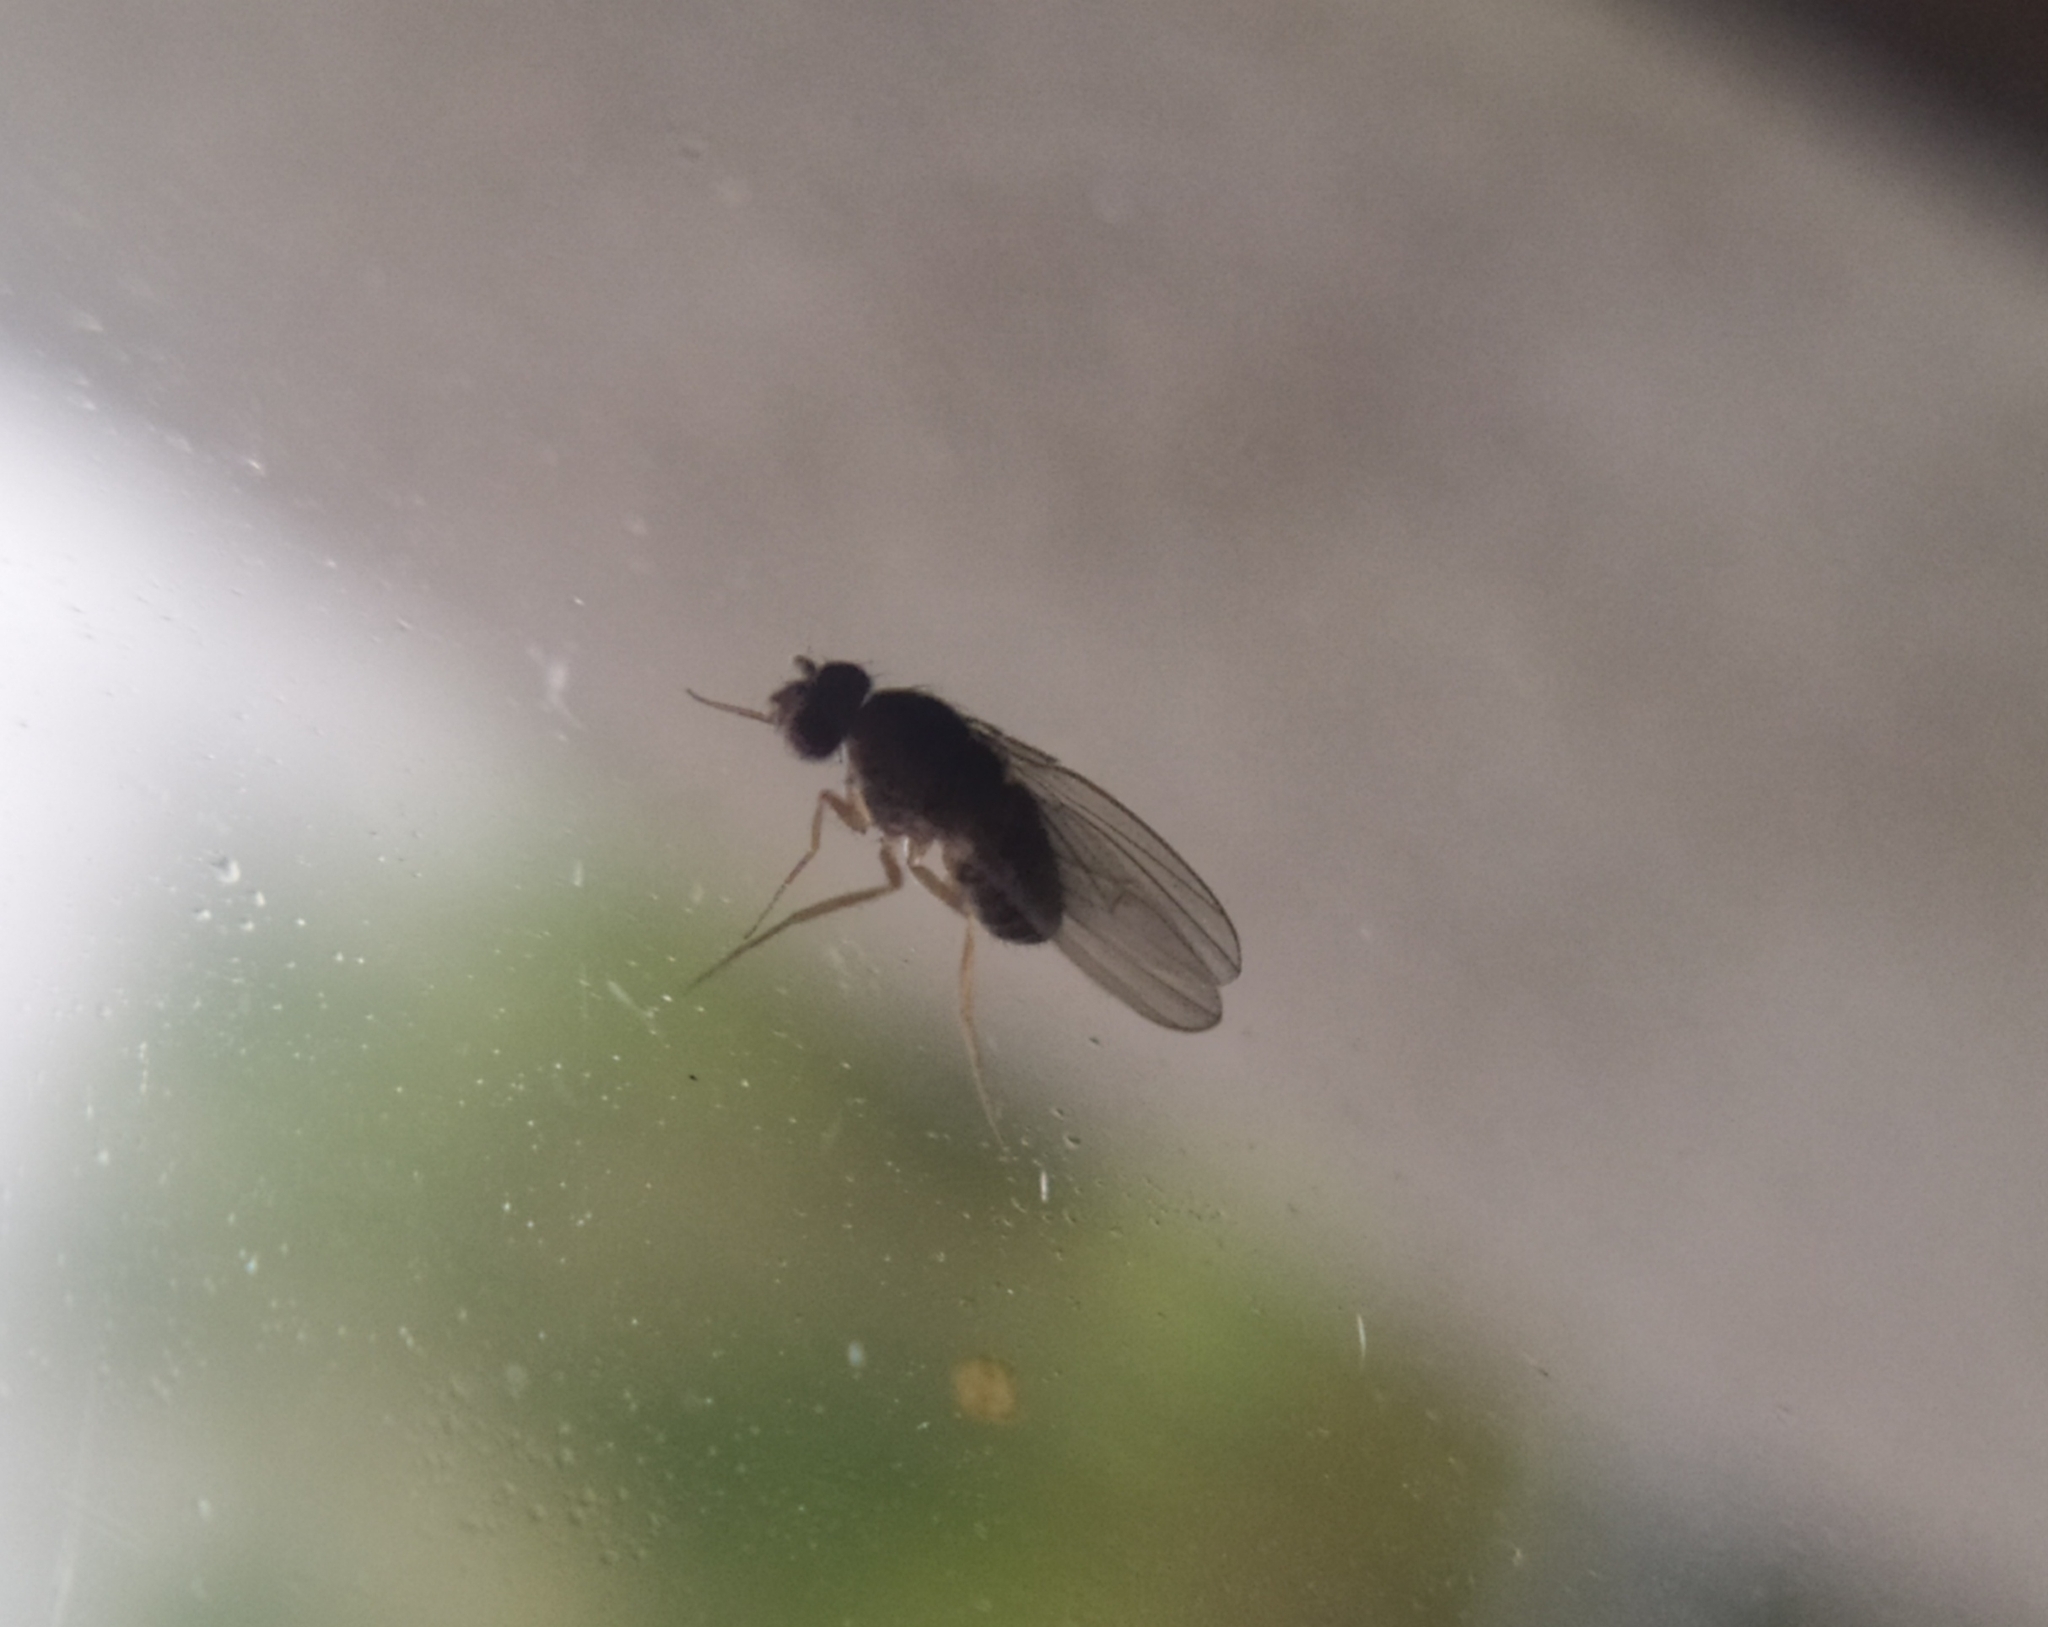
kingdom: Animalia
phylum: Arthropoda
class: Insecta
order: Diptera
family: Drosophilidae
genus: Drosophila
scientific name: Drosophila funebris
